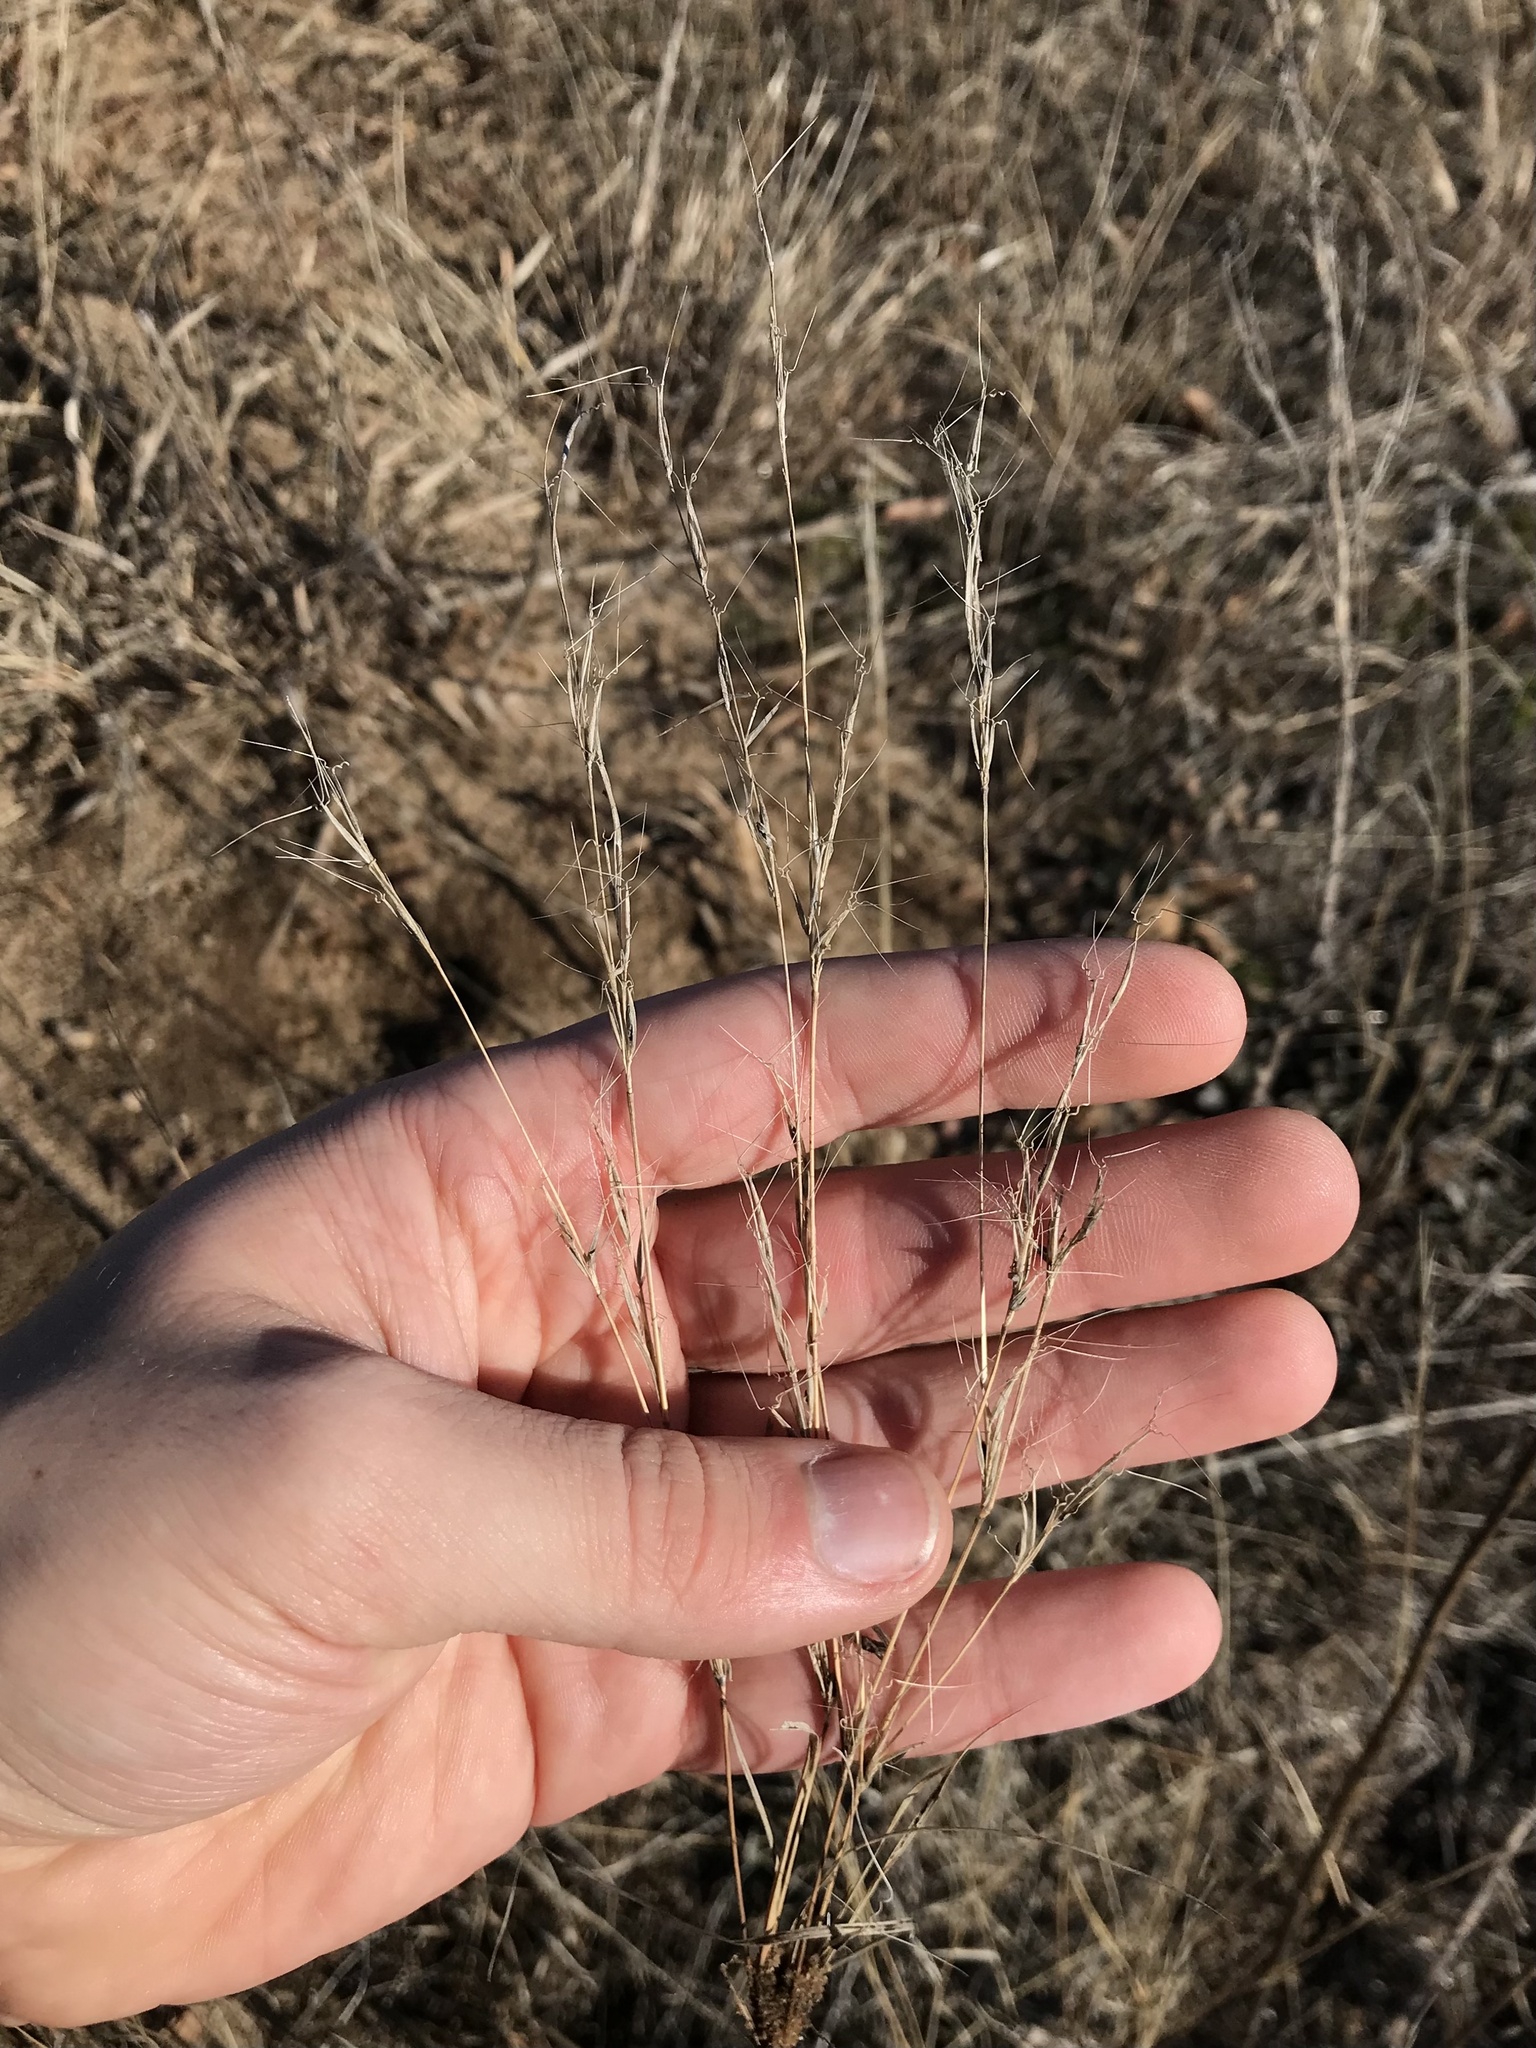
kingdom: Plantae
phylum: Tracheophyta
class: Liliopsida
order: Poales
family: Poaceae
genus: Aristida
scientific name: Aristida basiramea
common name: Forked three-awned grass
